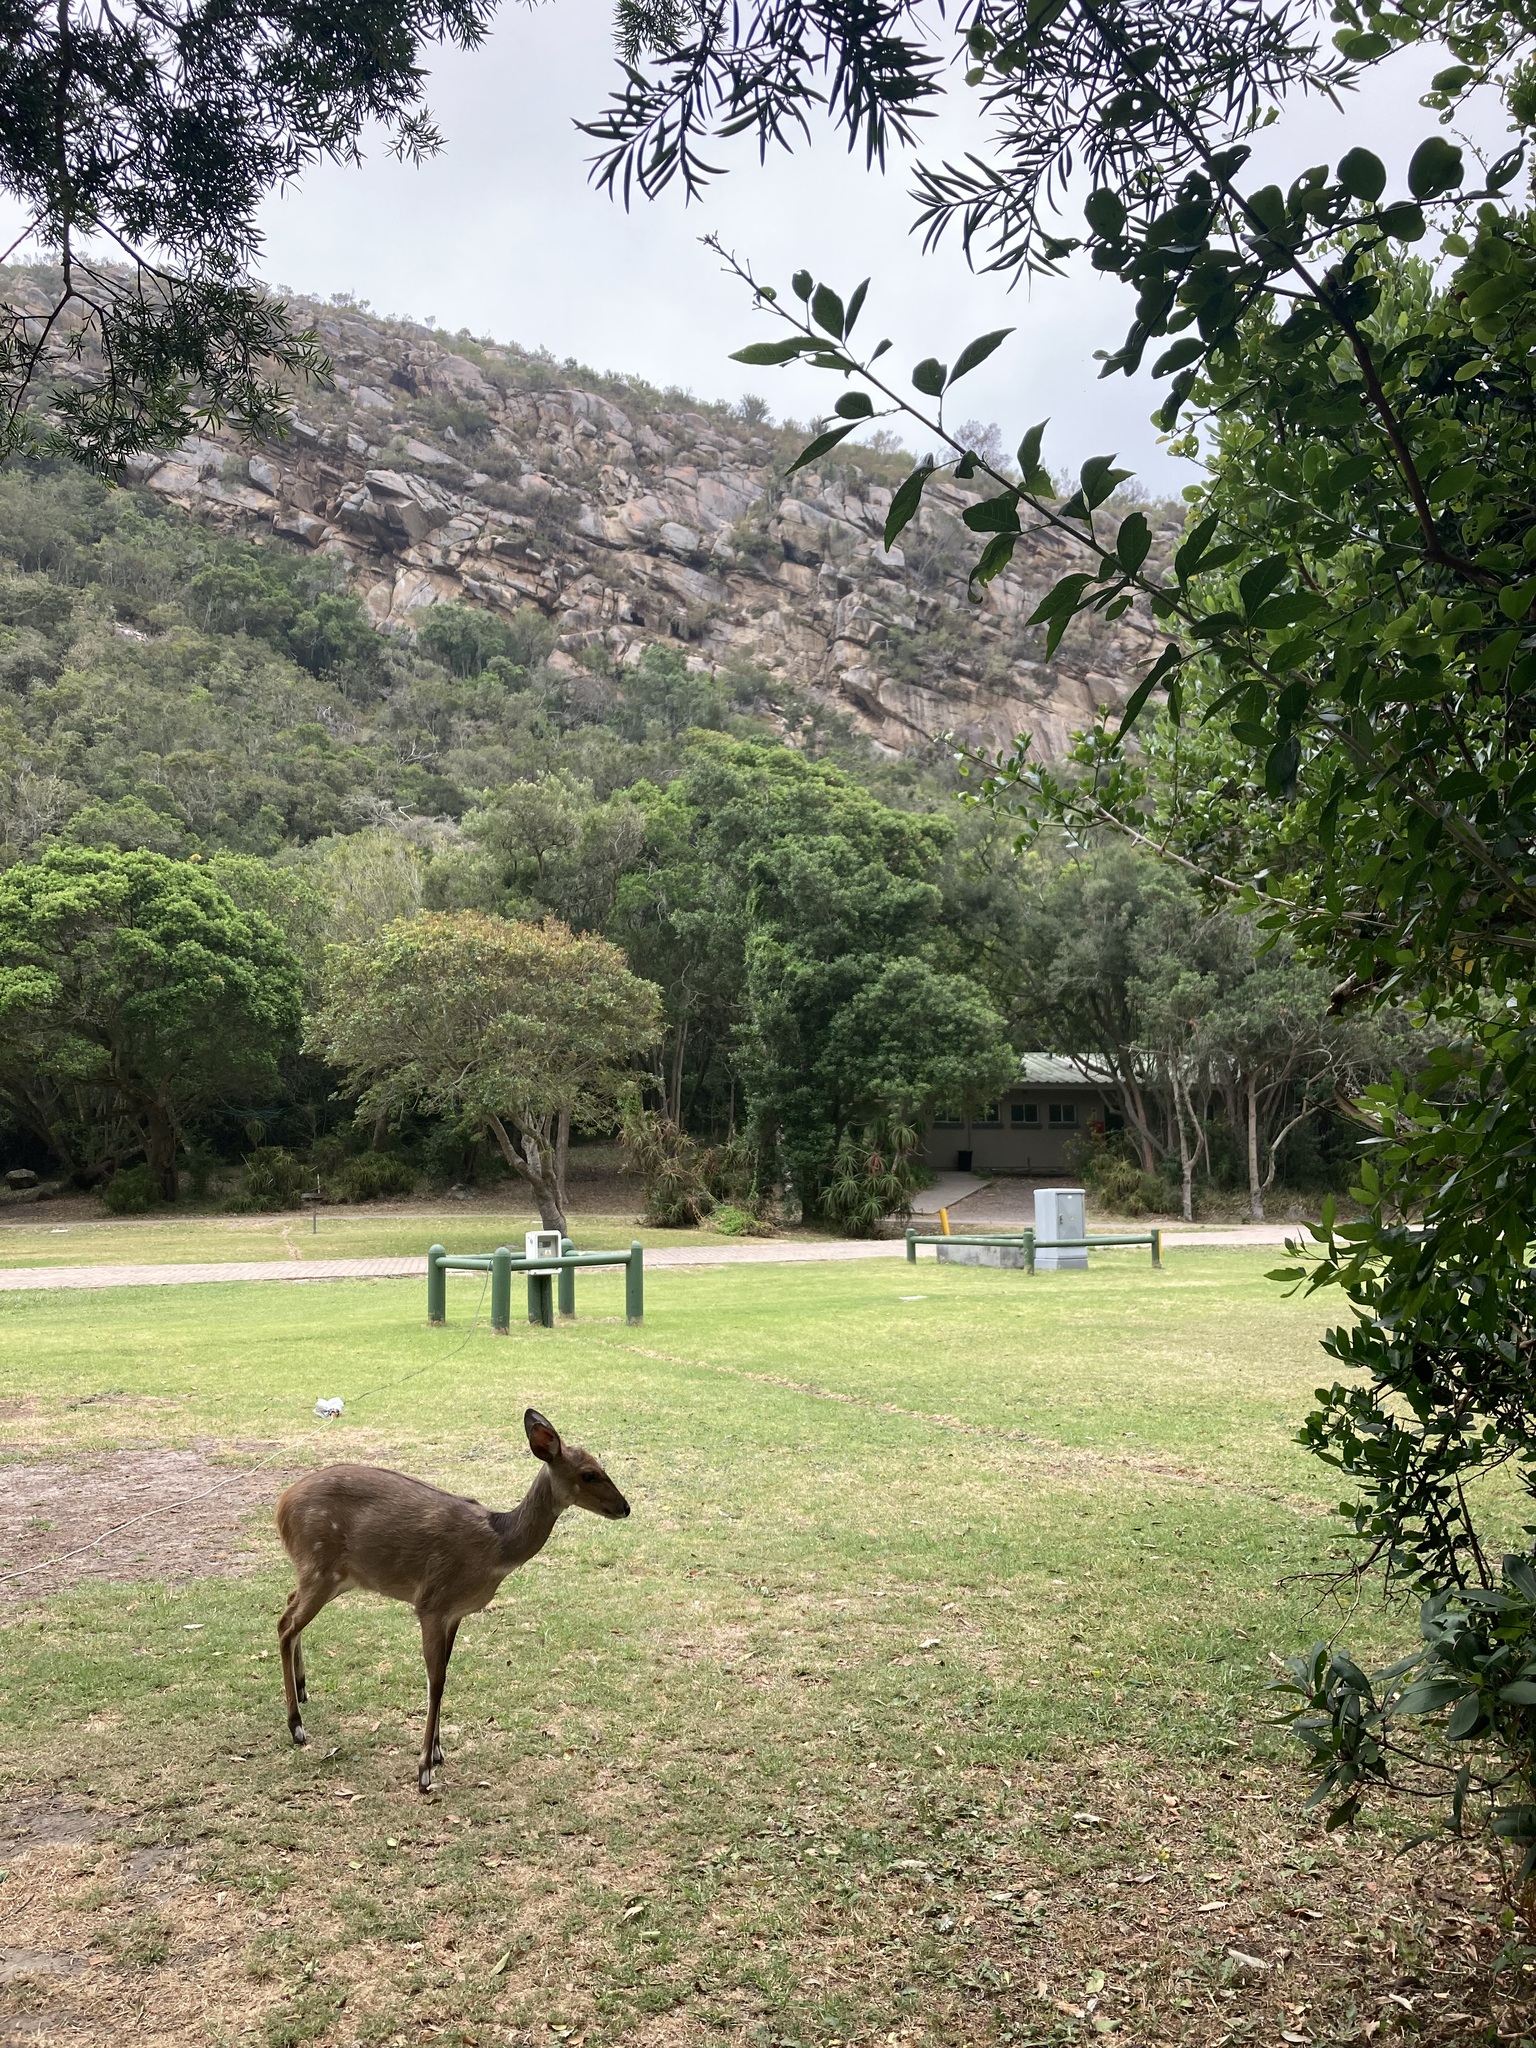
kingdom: Animalia
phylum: Chordata
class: Mammalia
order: Artiodactyla
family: Bovidae
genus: Tragelaphus
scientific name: Tragelaphus scriptus
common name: Bushbuck
